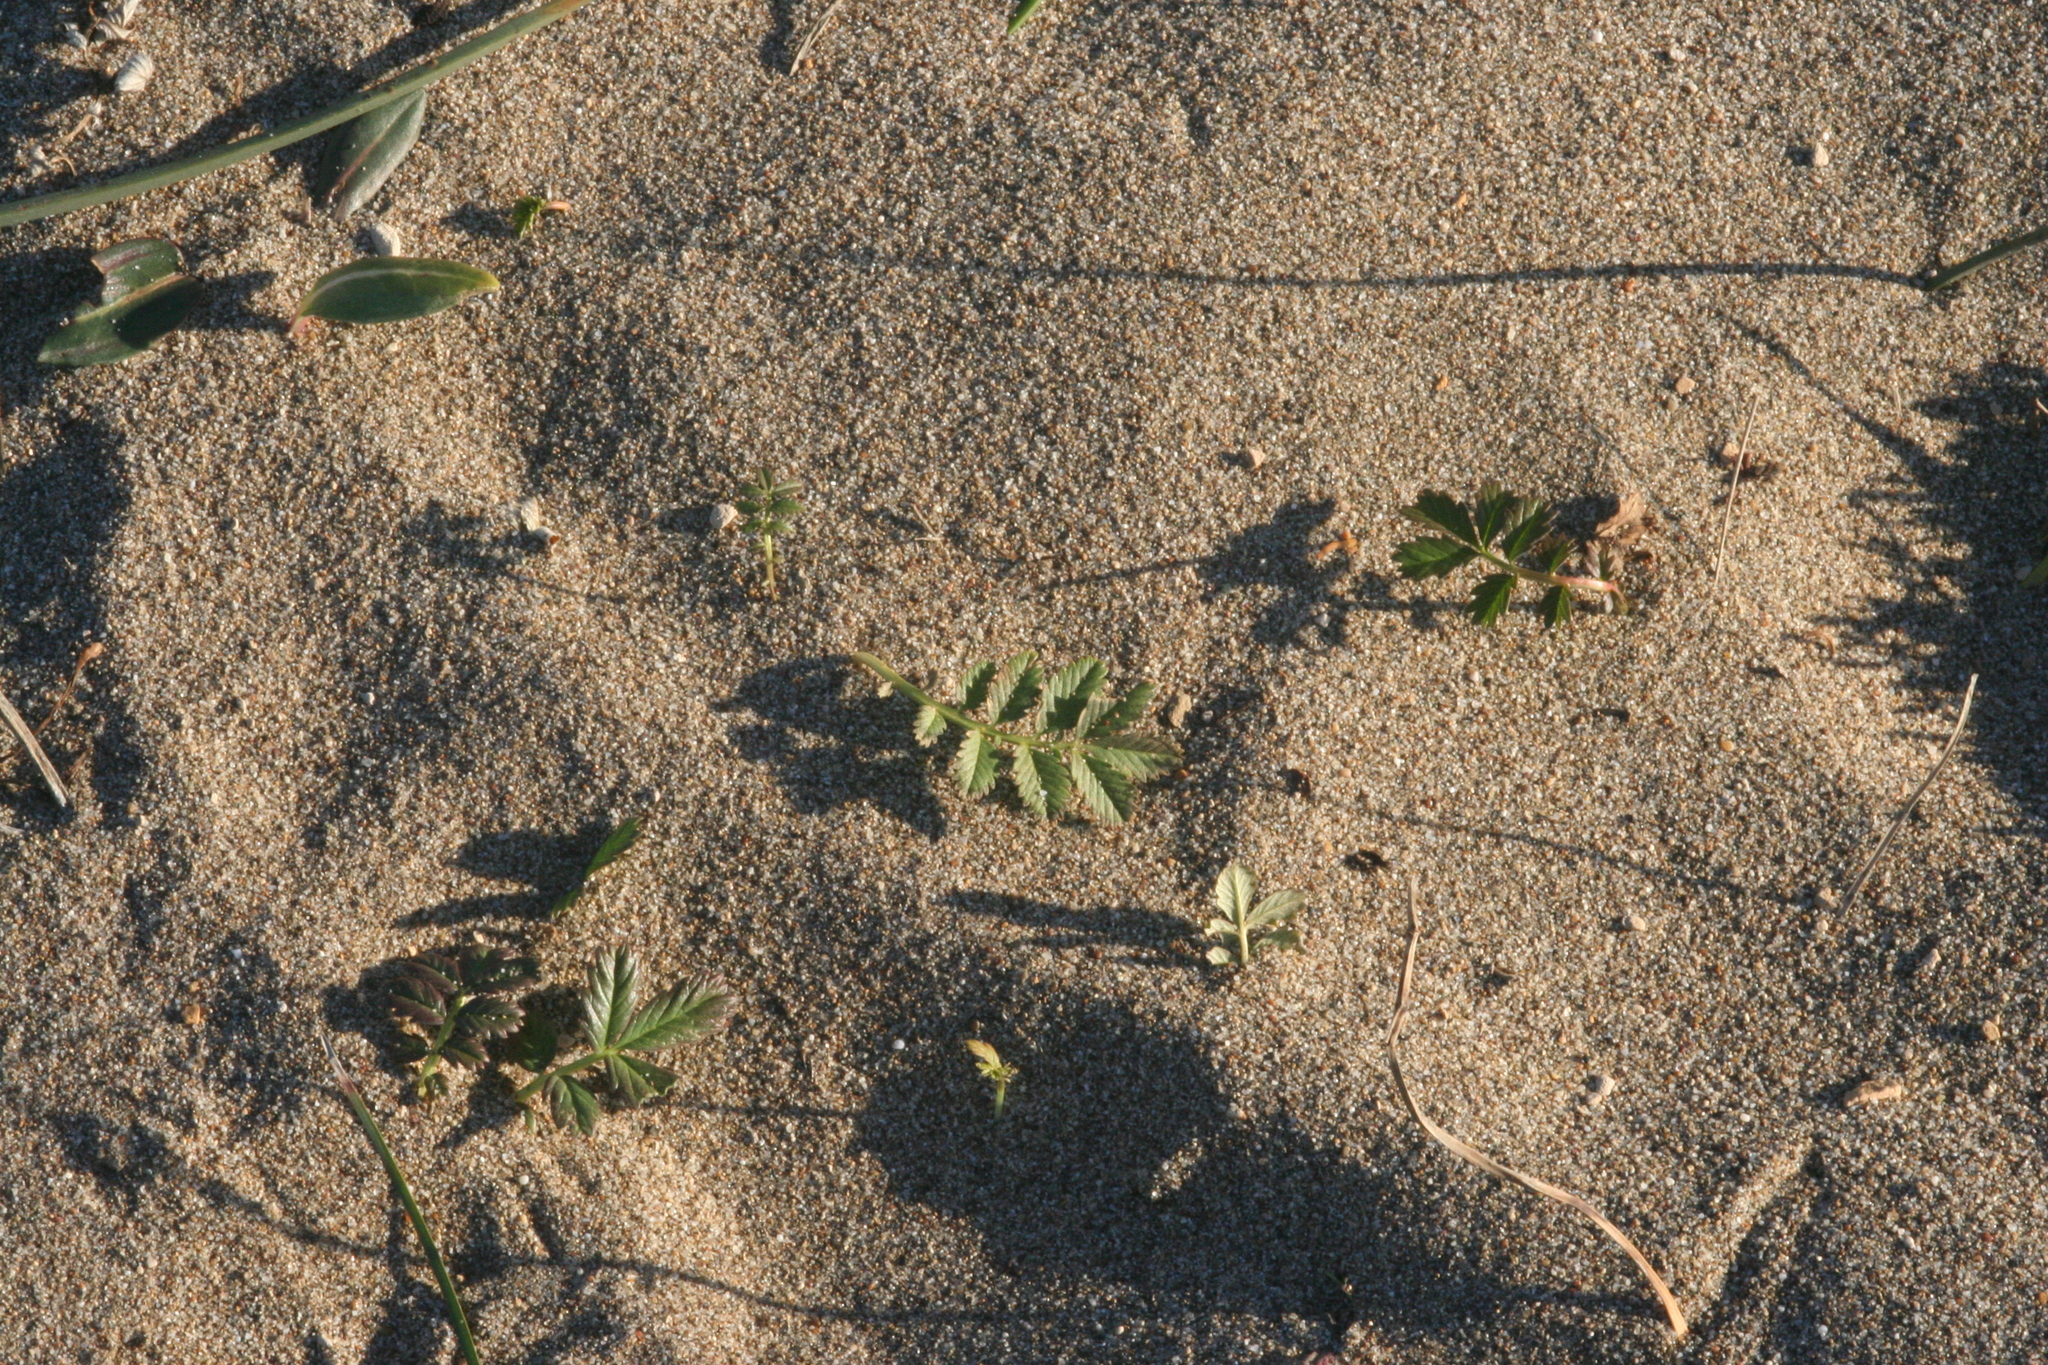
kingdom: Plantae
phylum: Tracheophyta
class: Magnoliopsida
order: Rosales
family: Rosaceae
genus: Argentina
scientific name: Argentina anserina
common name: Common silverweed
